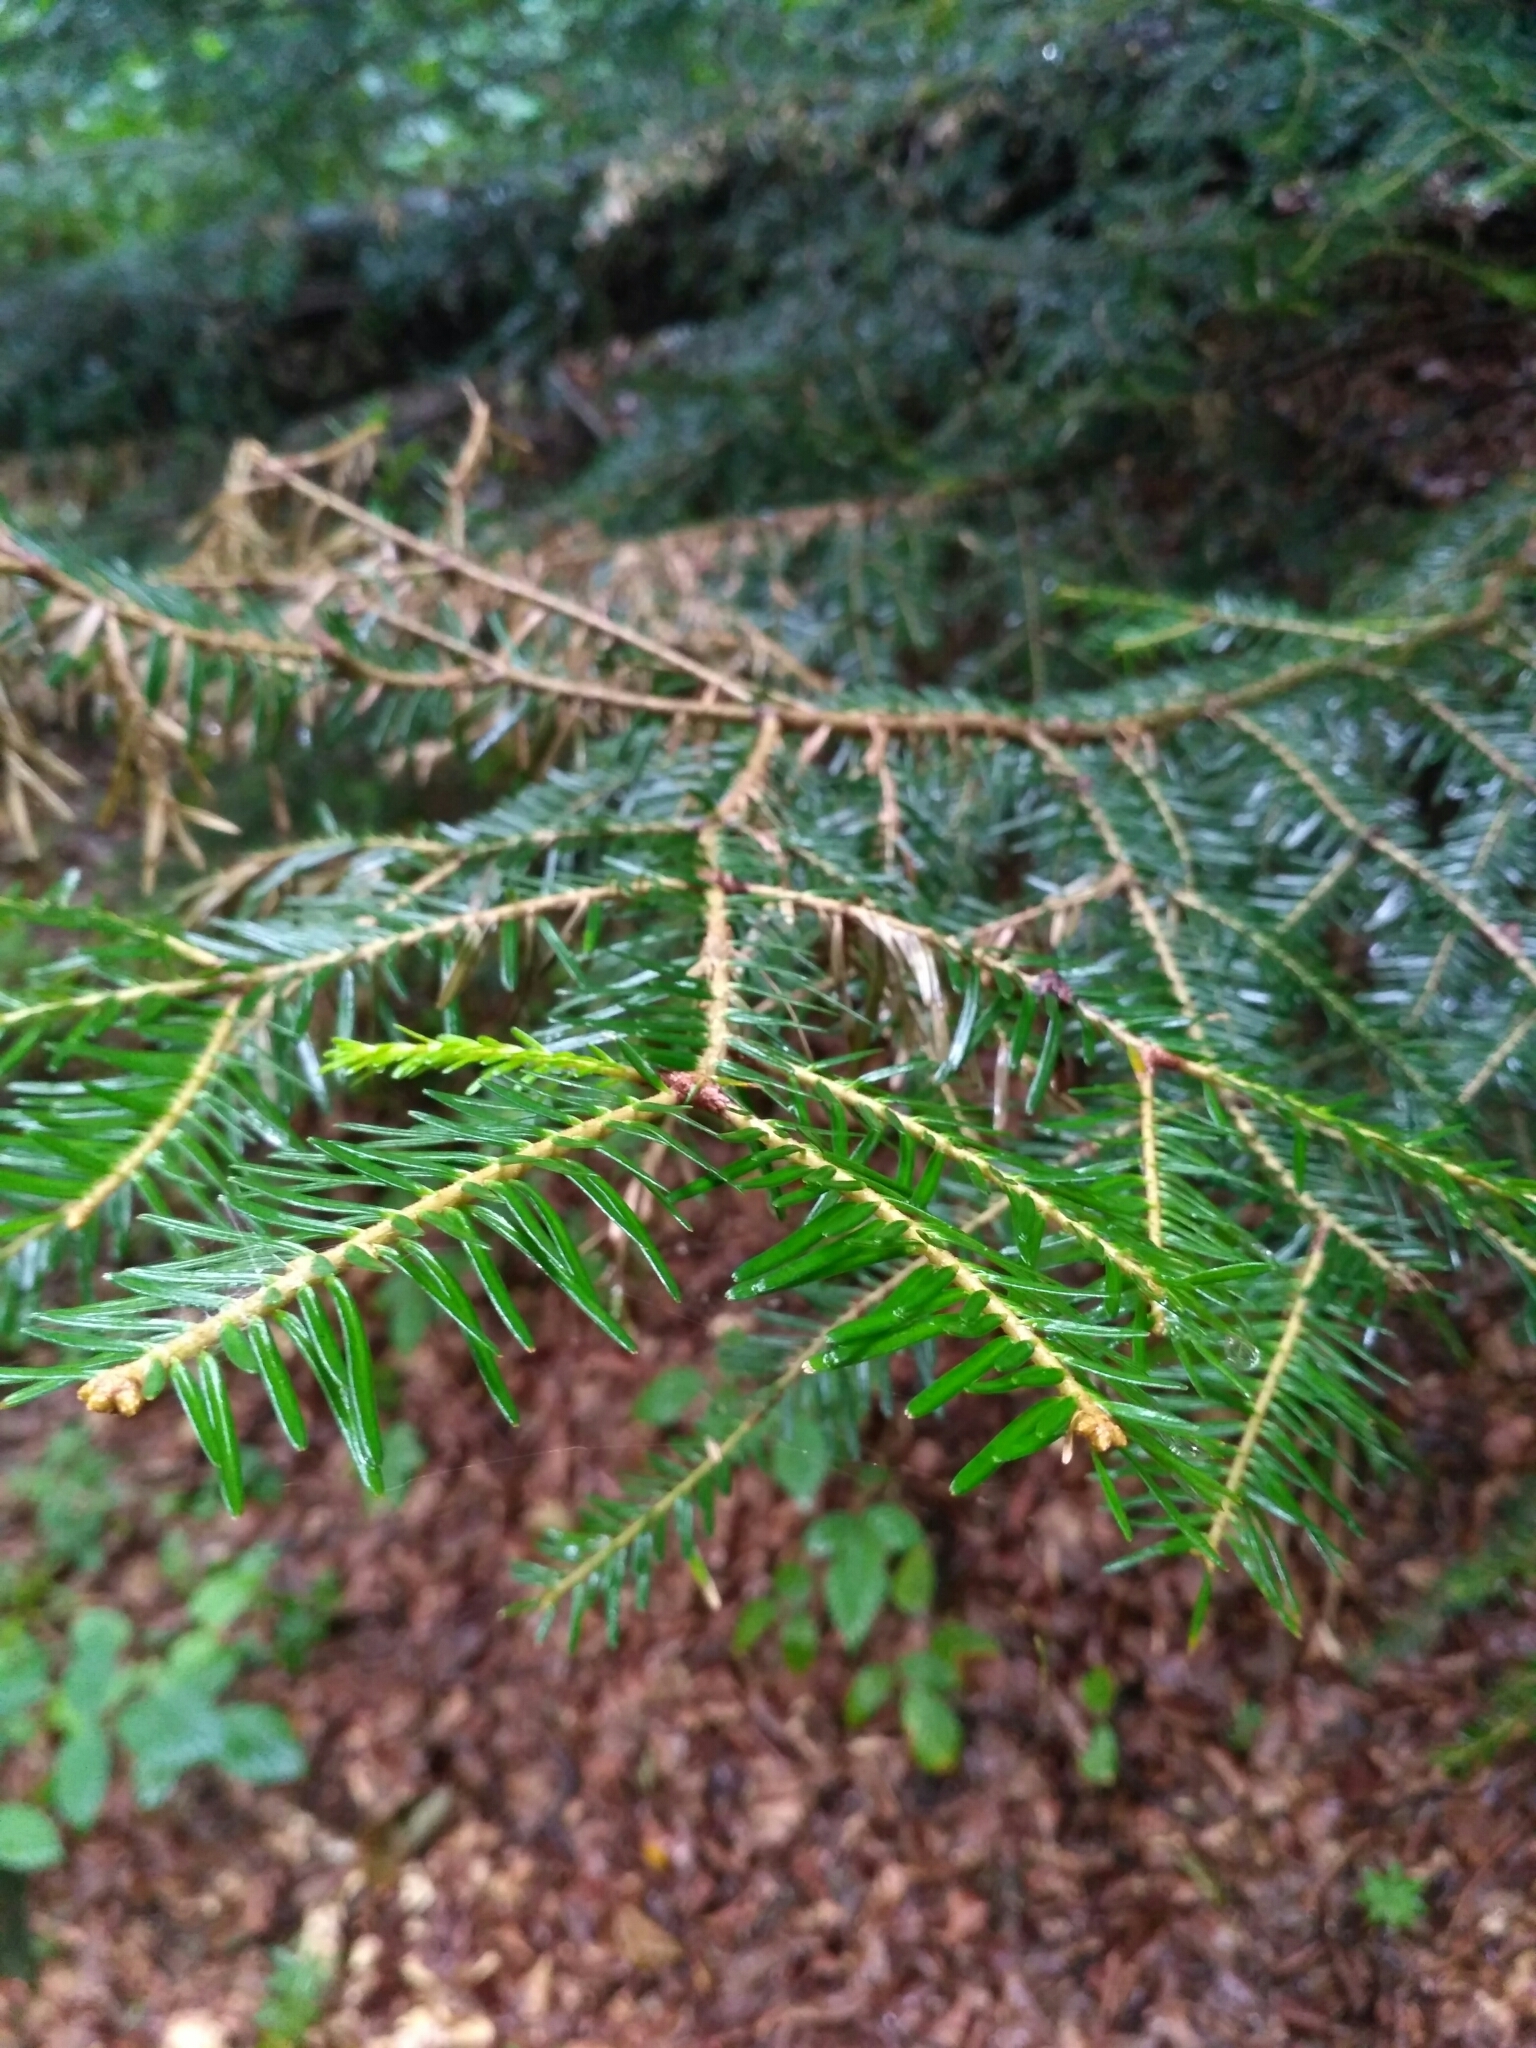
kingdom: Plantae
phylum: Tracheophyta
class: Pinopsida
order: Pinales
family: Pinaceae
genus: Abies
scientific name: Abies alba
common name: Silver fir
